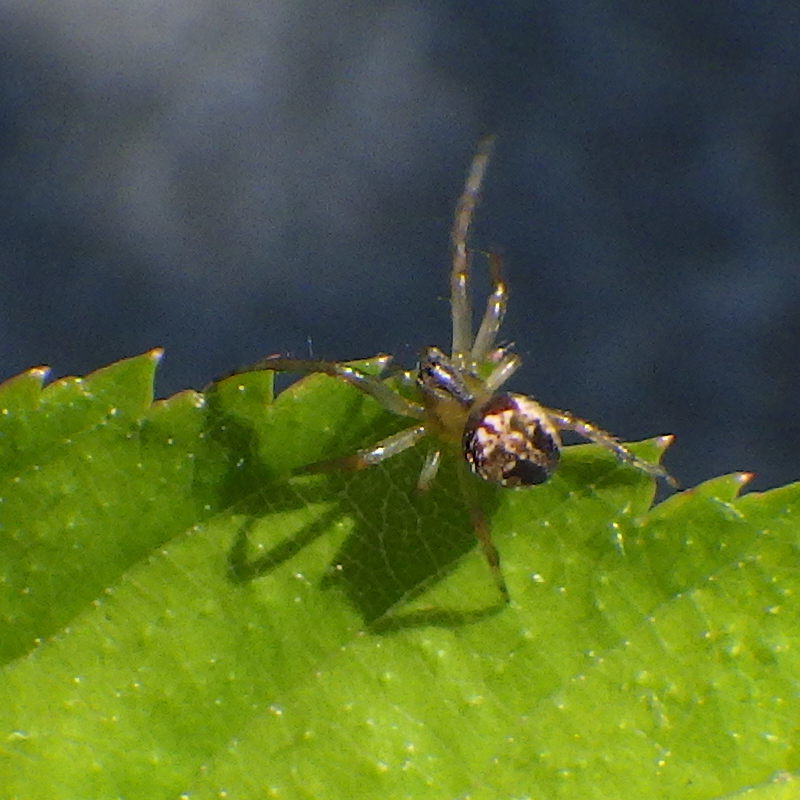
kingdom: Animalia
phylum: Arthropoda
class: Arachnida
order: Araneae
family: Araneidae
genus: Neoscona
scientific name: Neoscona arabesca
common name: Orb weavers
